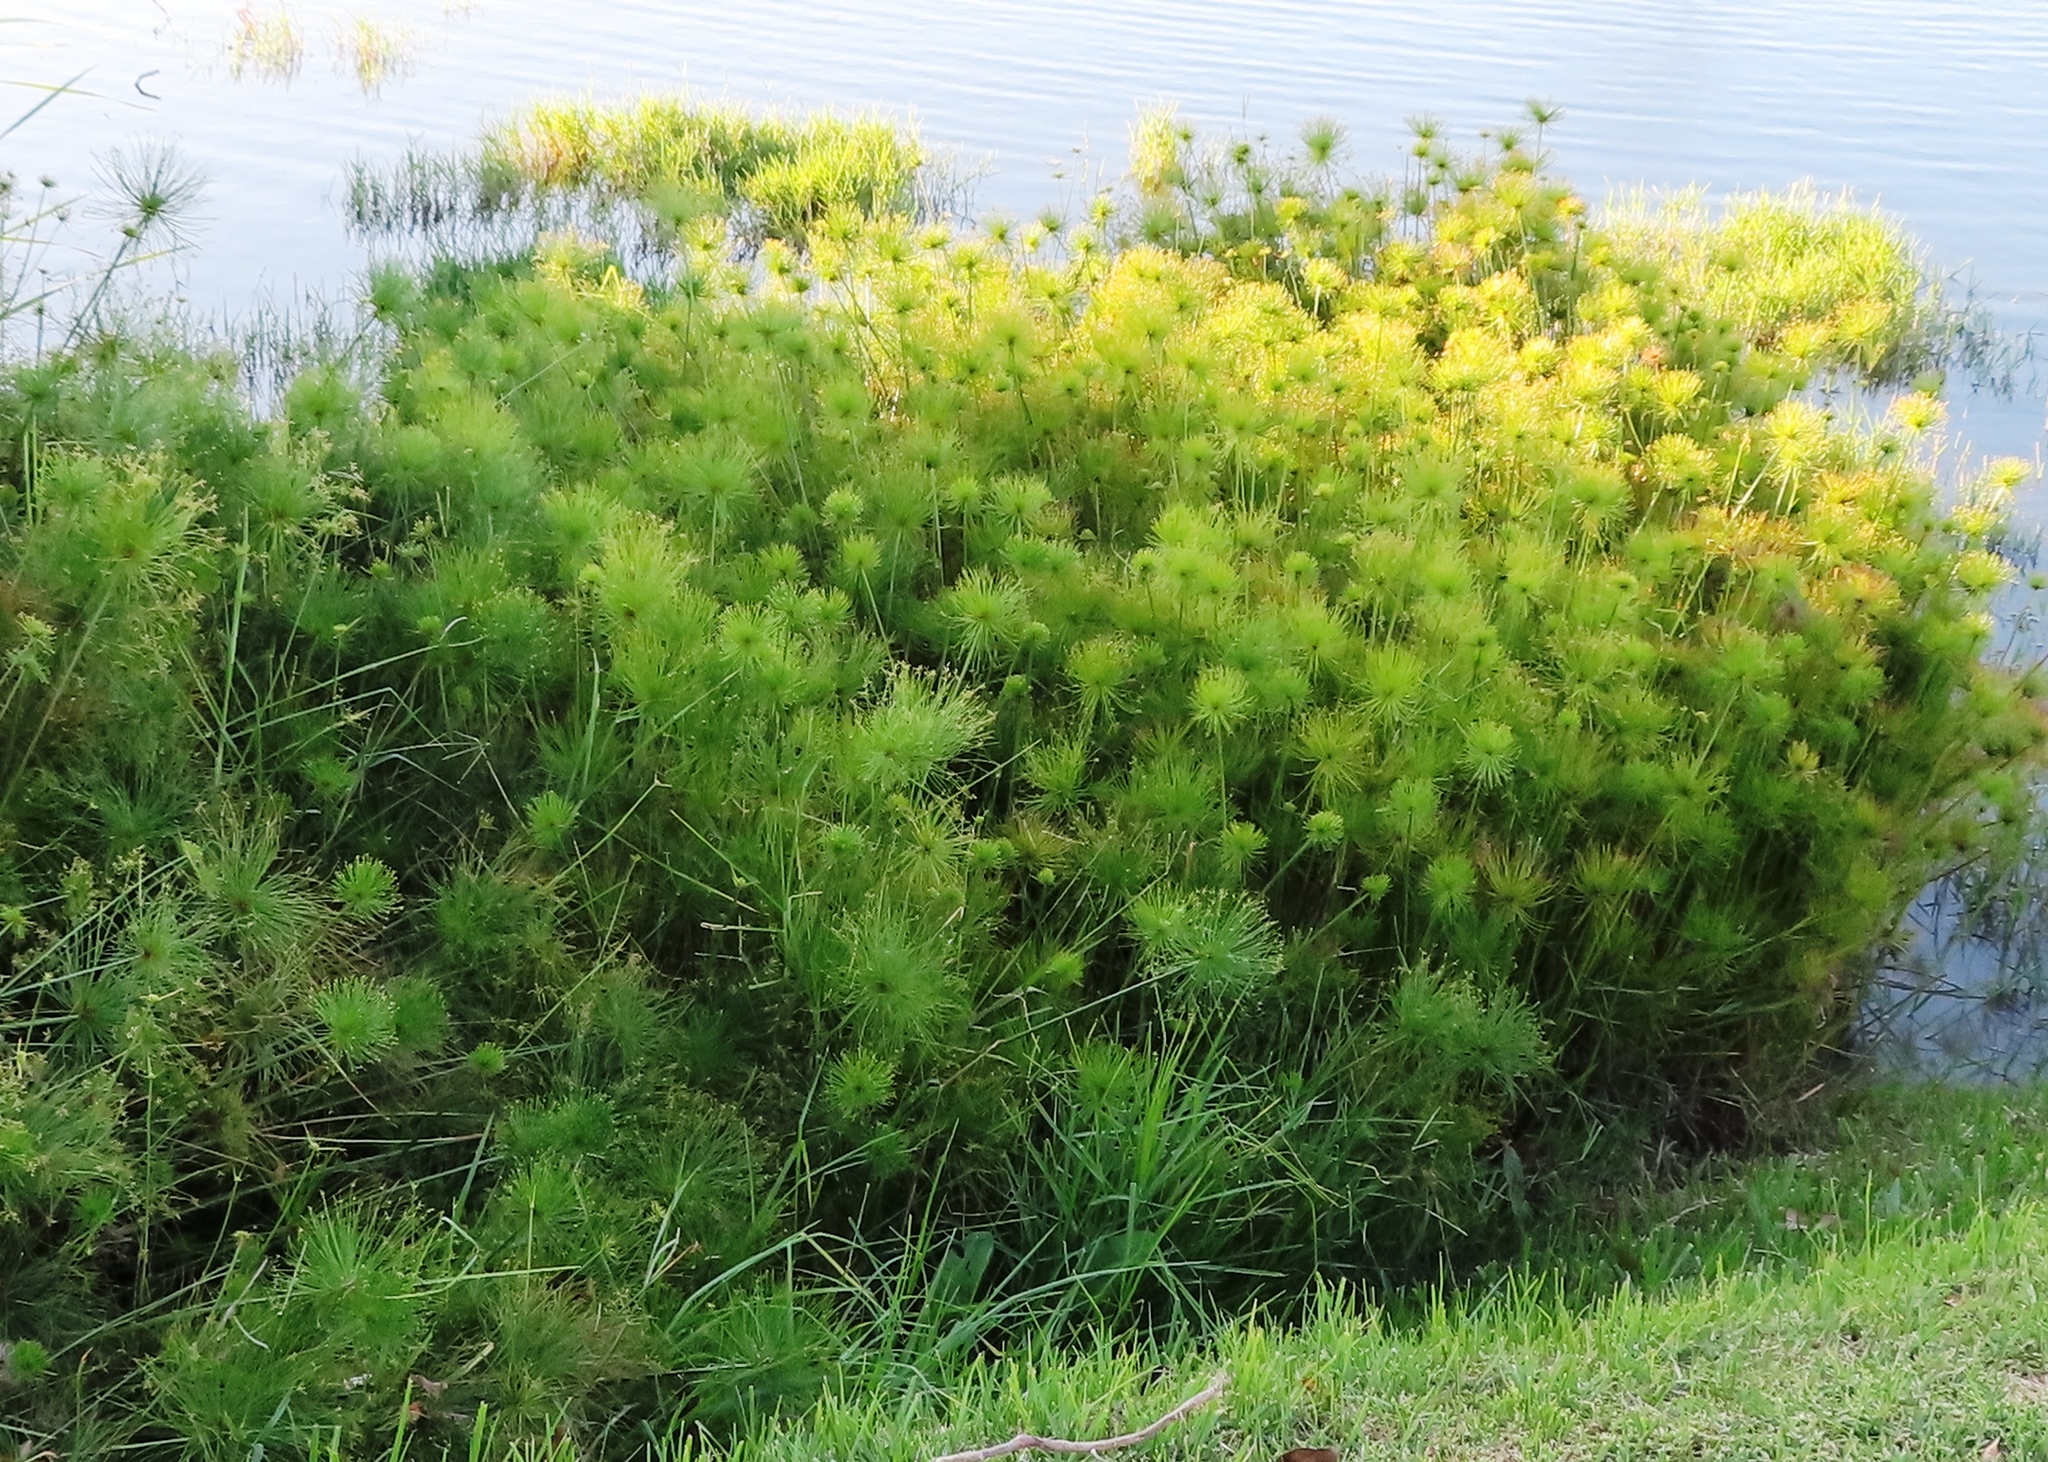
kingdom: Plantae
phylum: Tracheophyta
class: Liliopsida
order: Poales
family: Cyperaceae
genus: Cyperus
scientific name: Cyperus papyrus
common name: Papyrus
